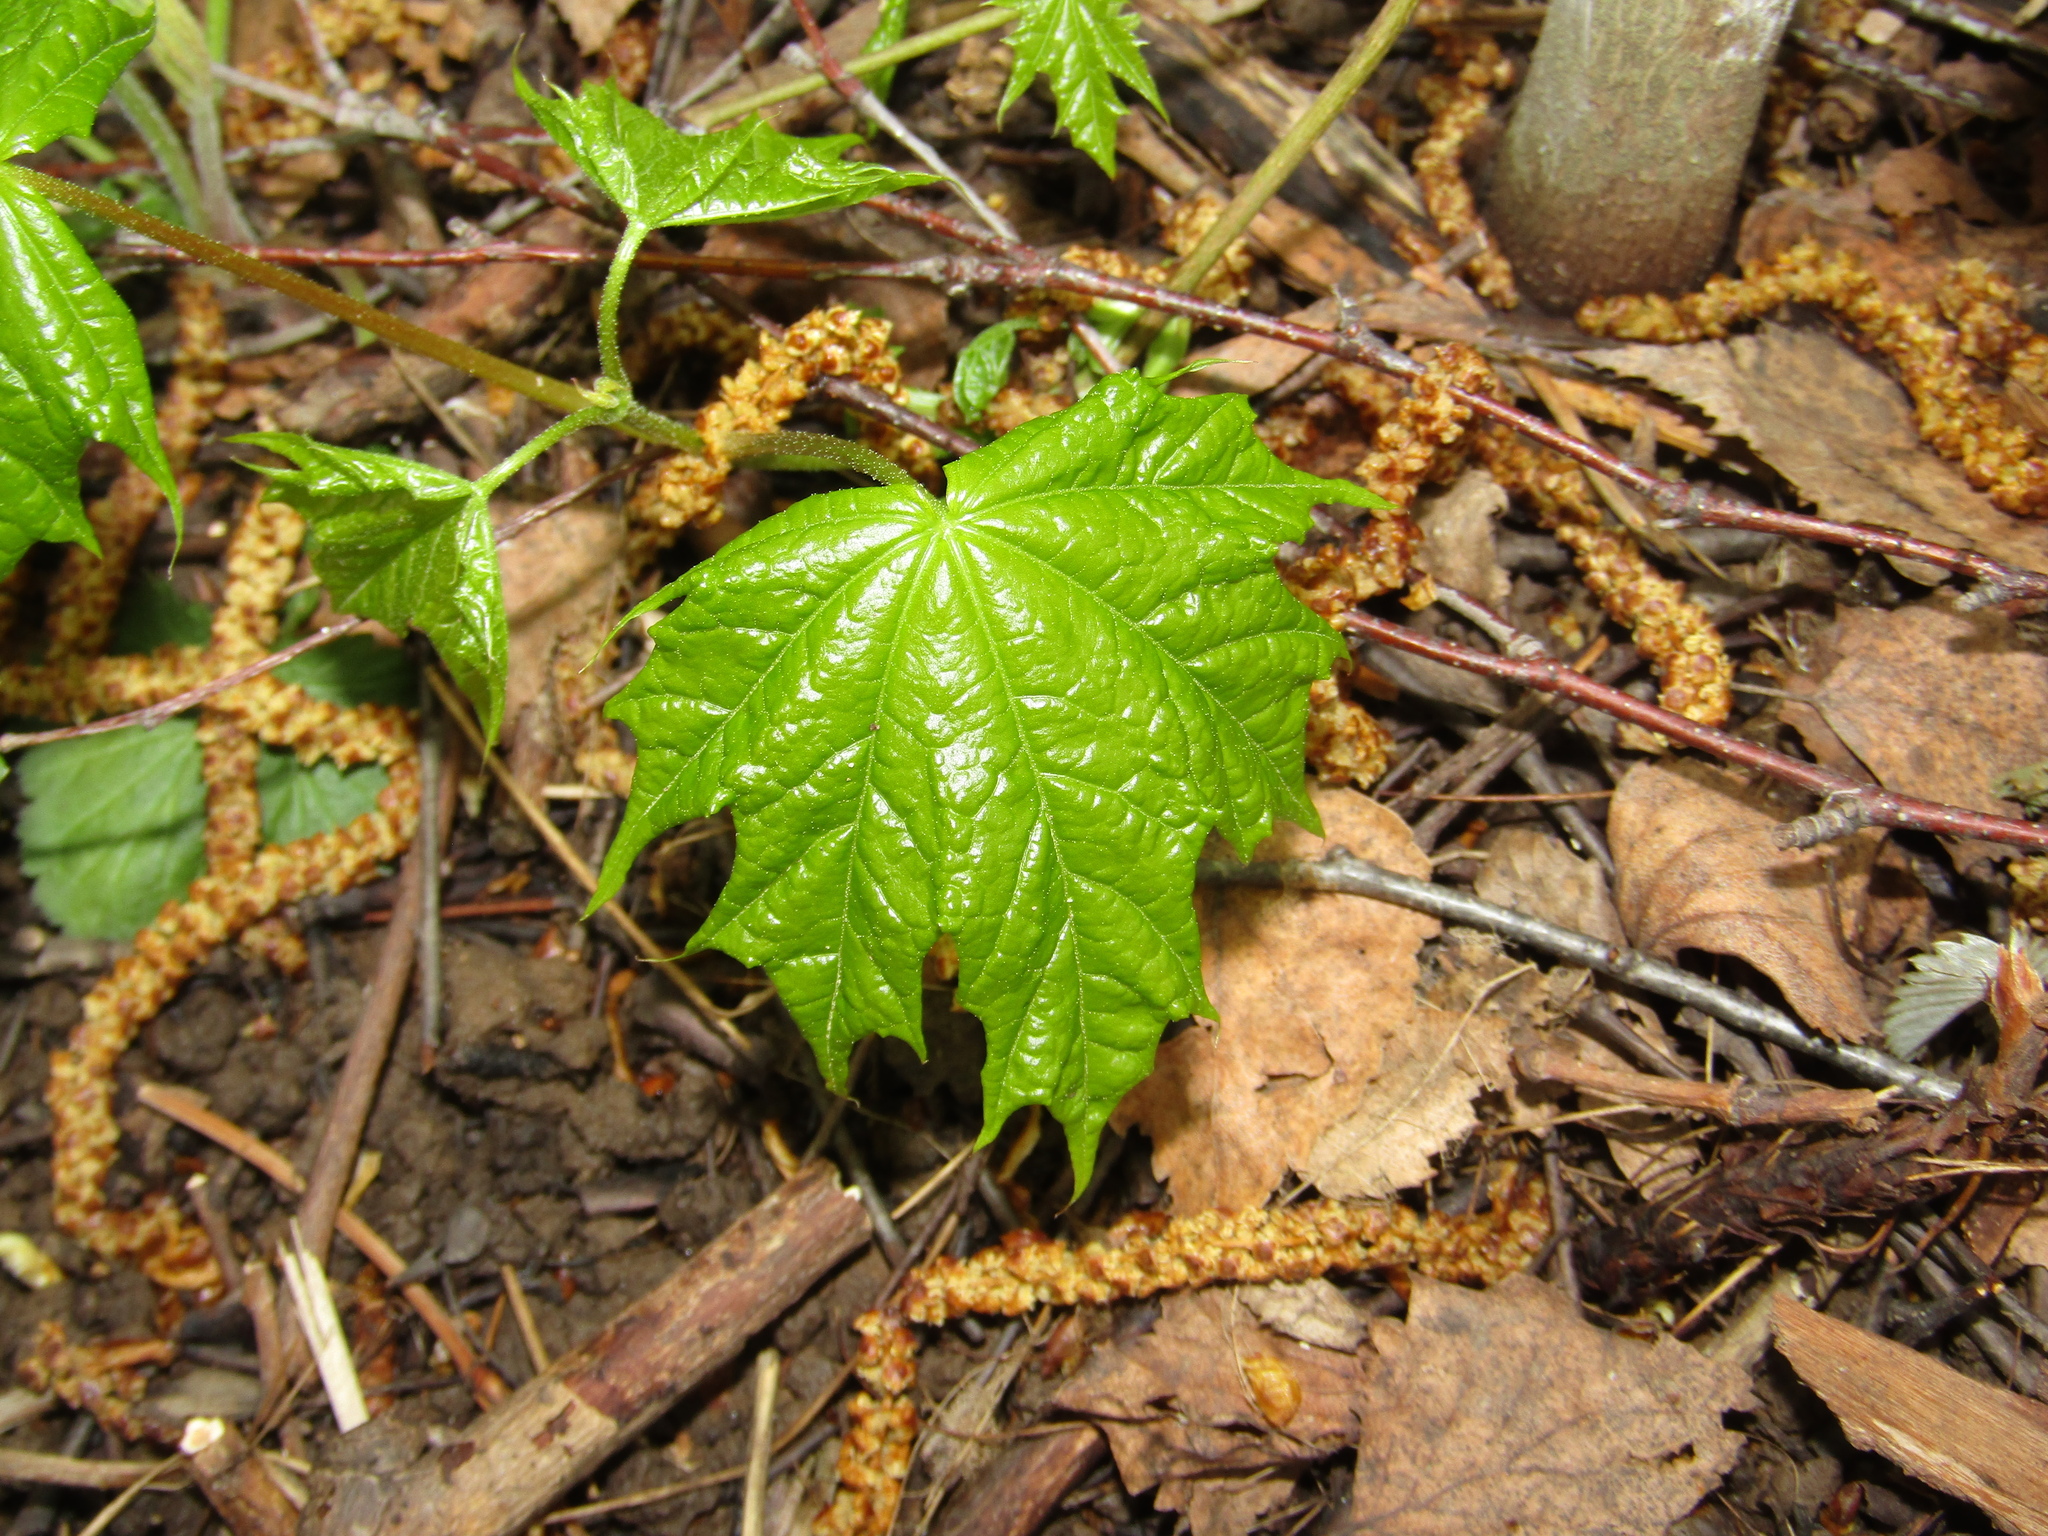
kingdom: Plantae
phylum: Tracheophyta
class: Magnoliopsida
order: Sapindales
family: Sapindaceae
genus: Acer
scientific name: Acer platanoides
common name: Norway maple
